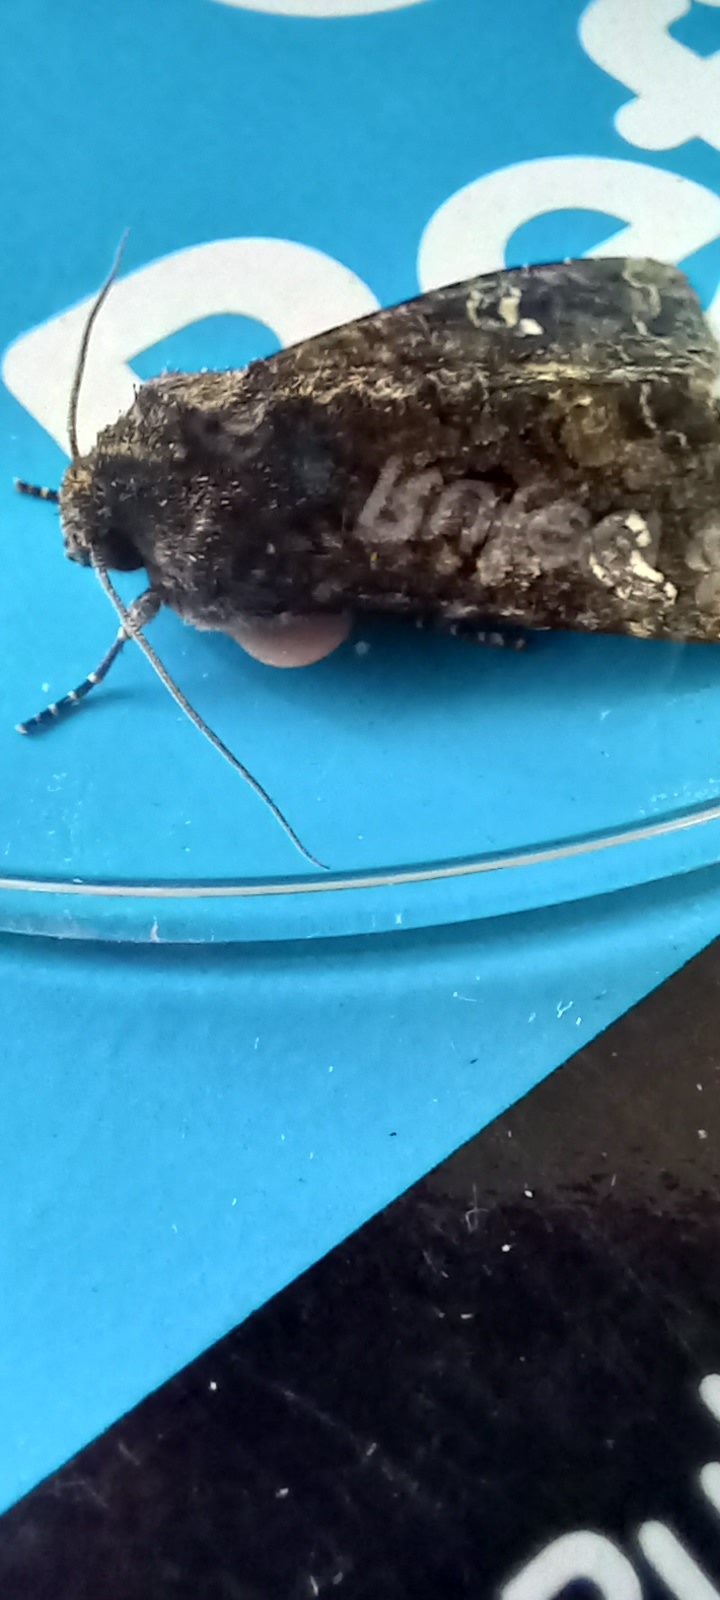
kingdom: Animalia
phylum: Arthropoda
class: Insecta
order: Lepidoptera
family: Noctuidae
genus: Mamestra
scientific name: Mamestra brassicae
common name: Cabbage moth
